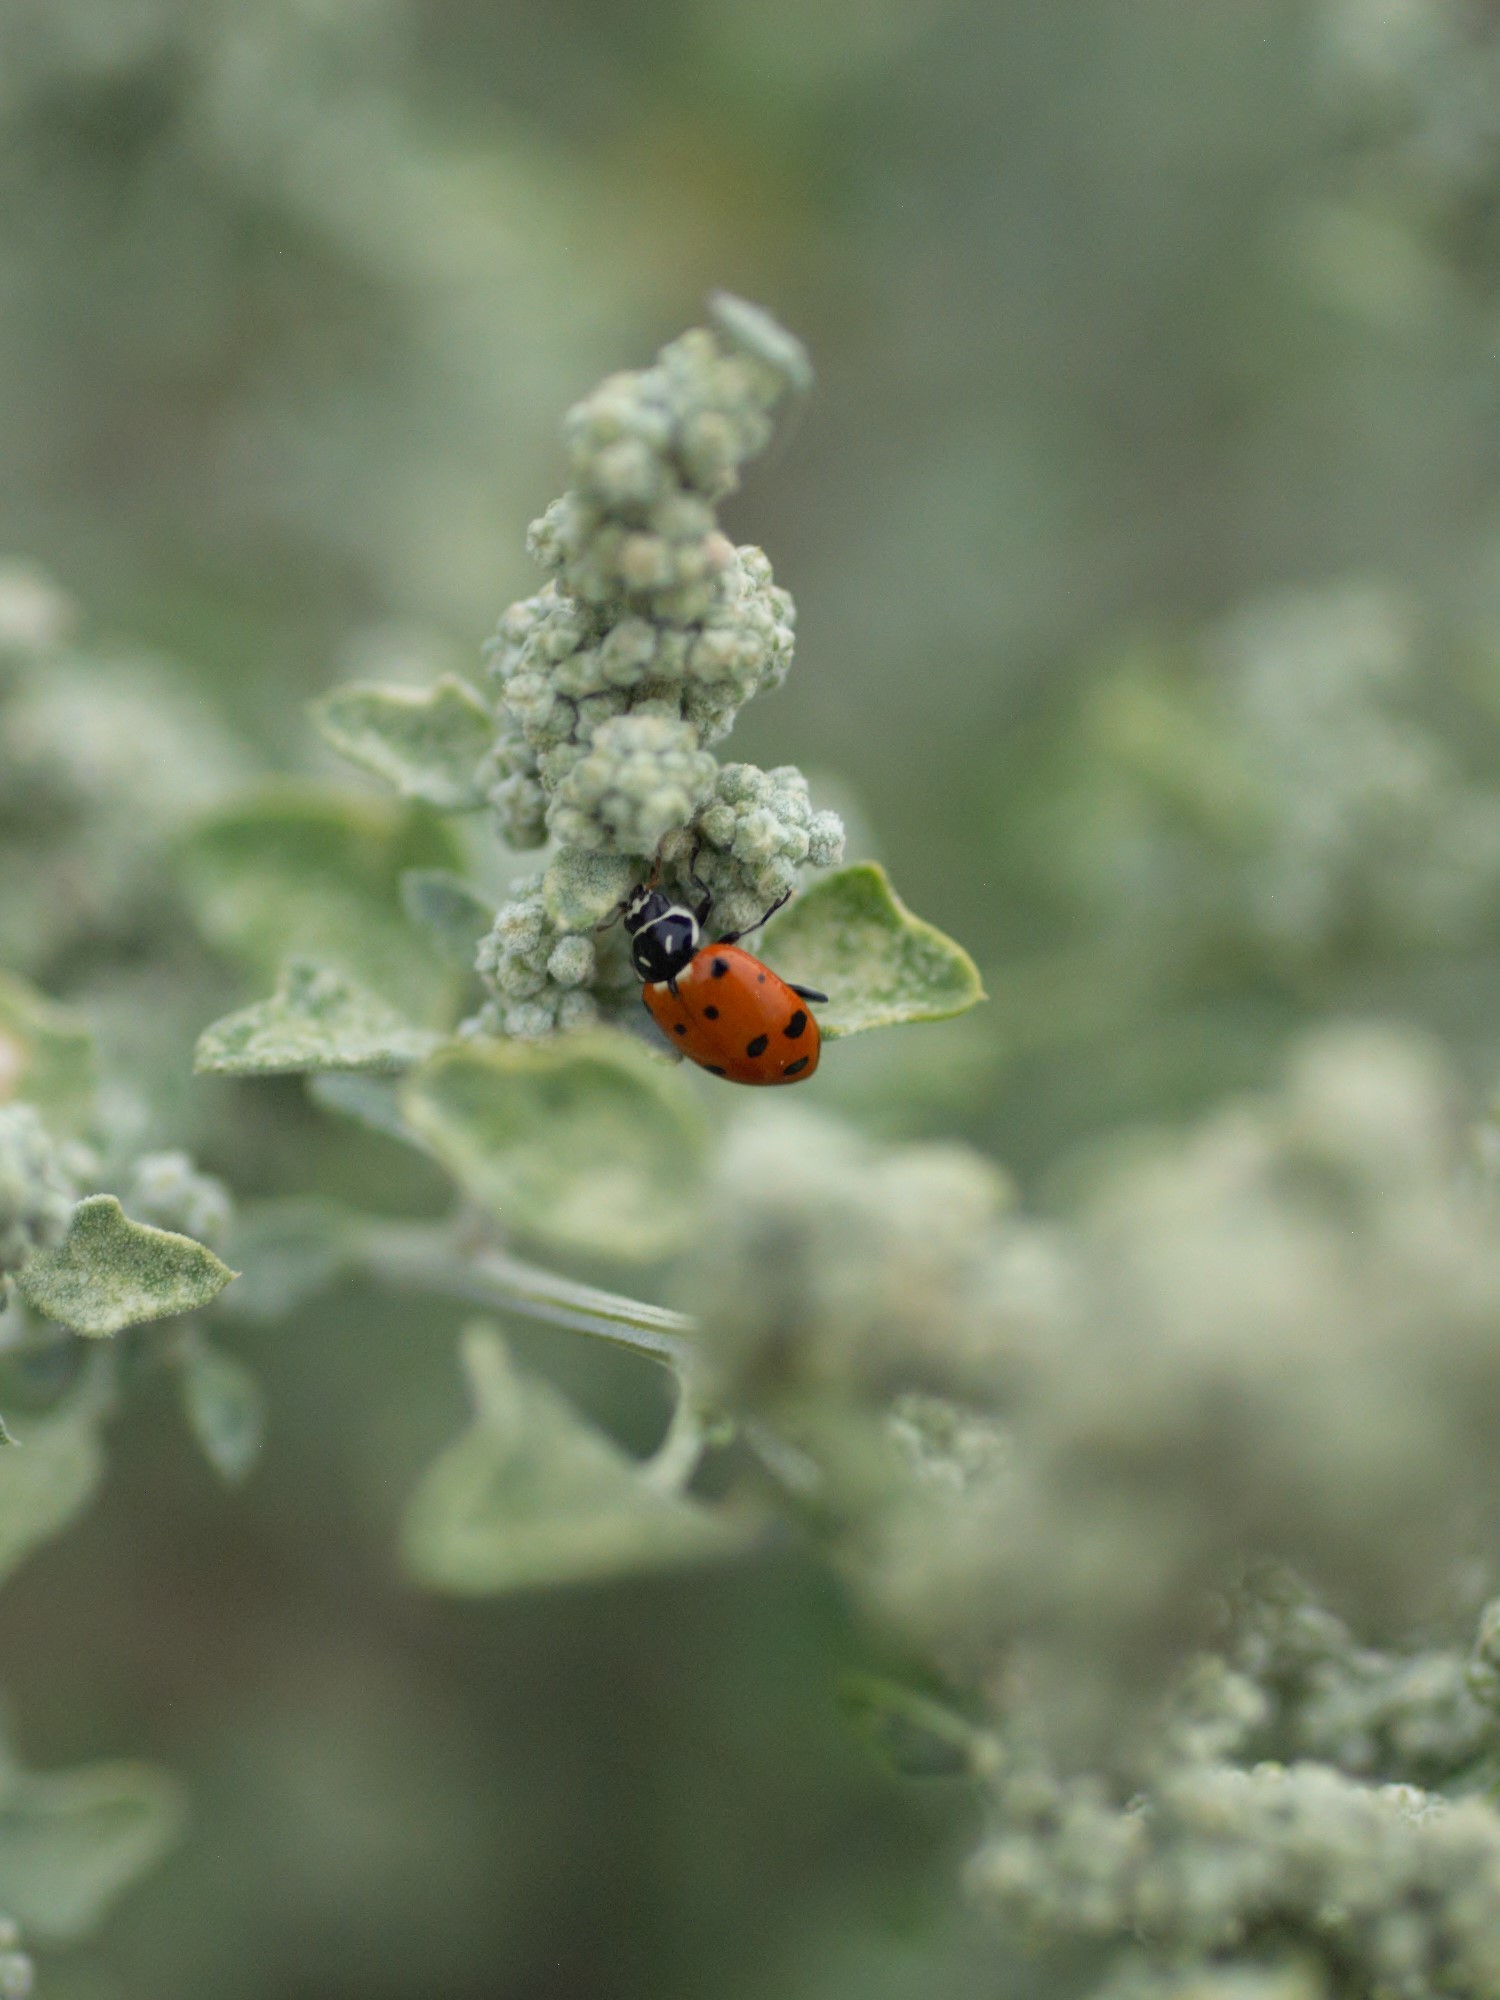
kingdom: Animalia
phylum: Arthropoda
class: Insecta
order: Coleoptera
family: Coccinellidae
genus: Hippodamia
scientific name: Hippodamia convergens
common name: Convergent lady beetle
